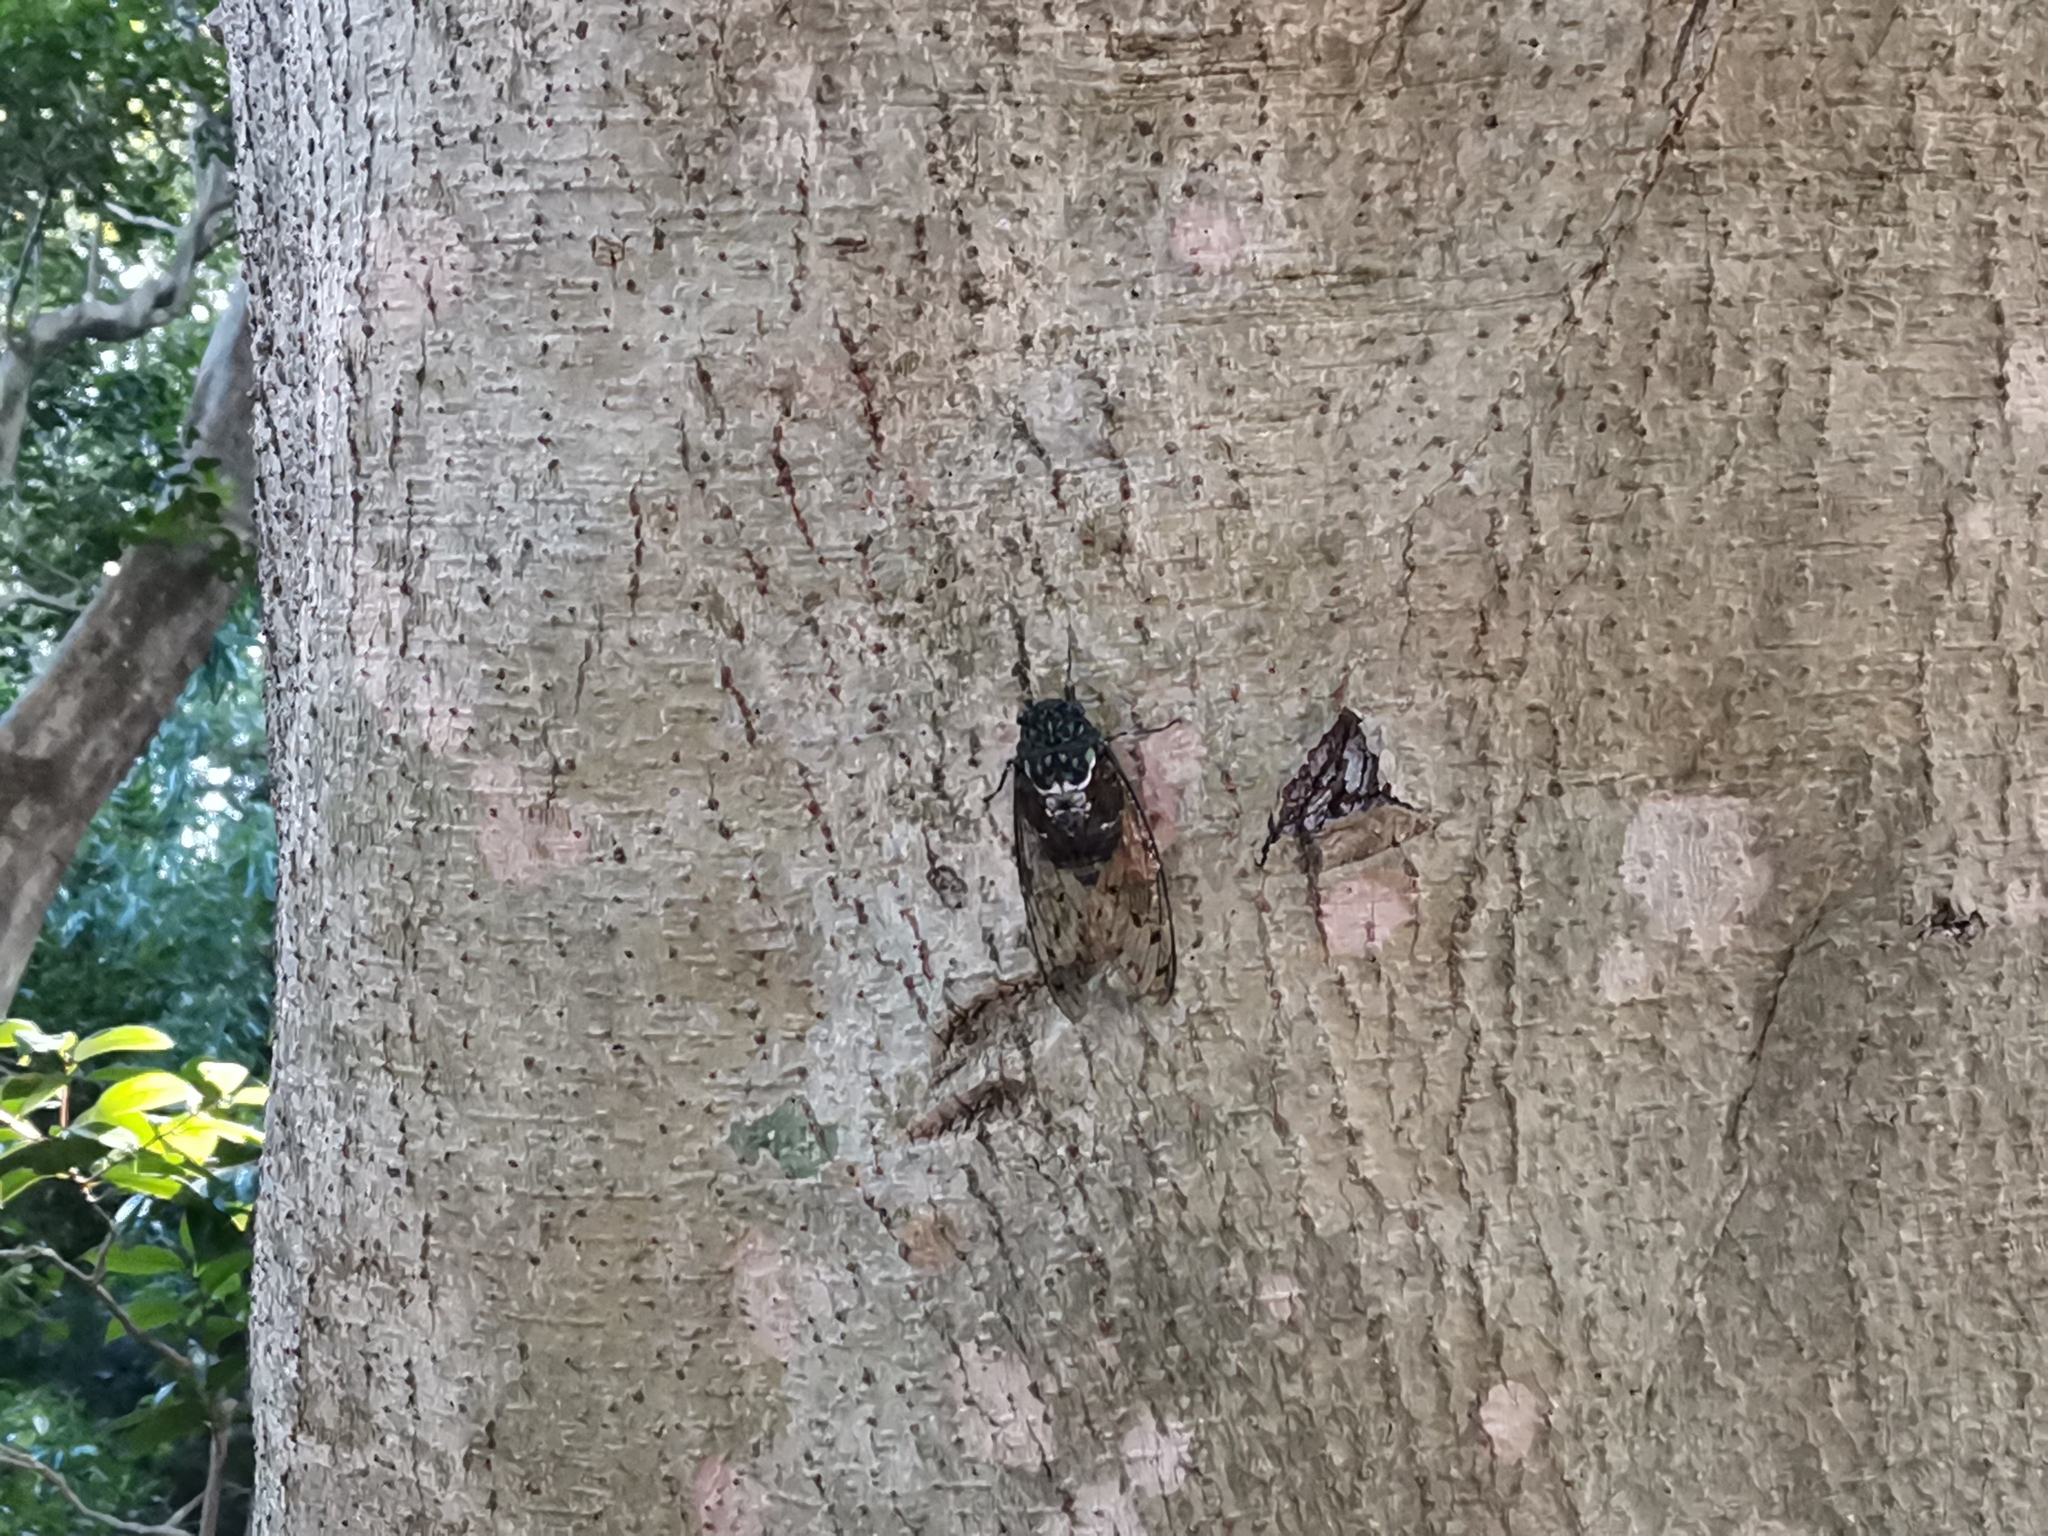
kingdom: Animalia
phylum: Arthropoda
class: Insecta
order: Hemiptera
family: Cicadidae
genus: Hyalessa
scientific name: Hyalessa maculaticollis
